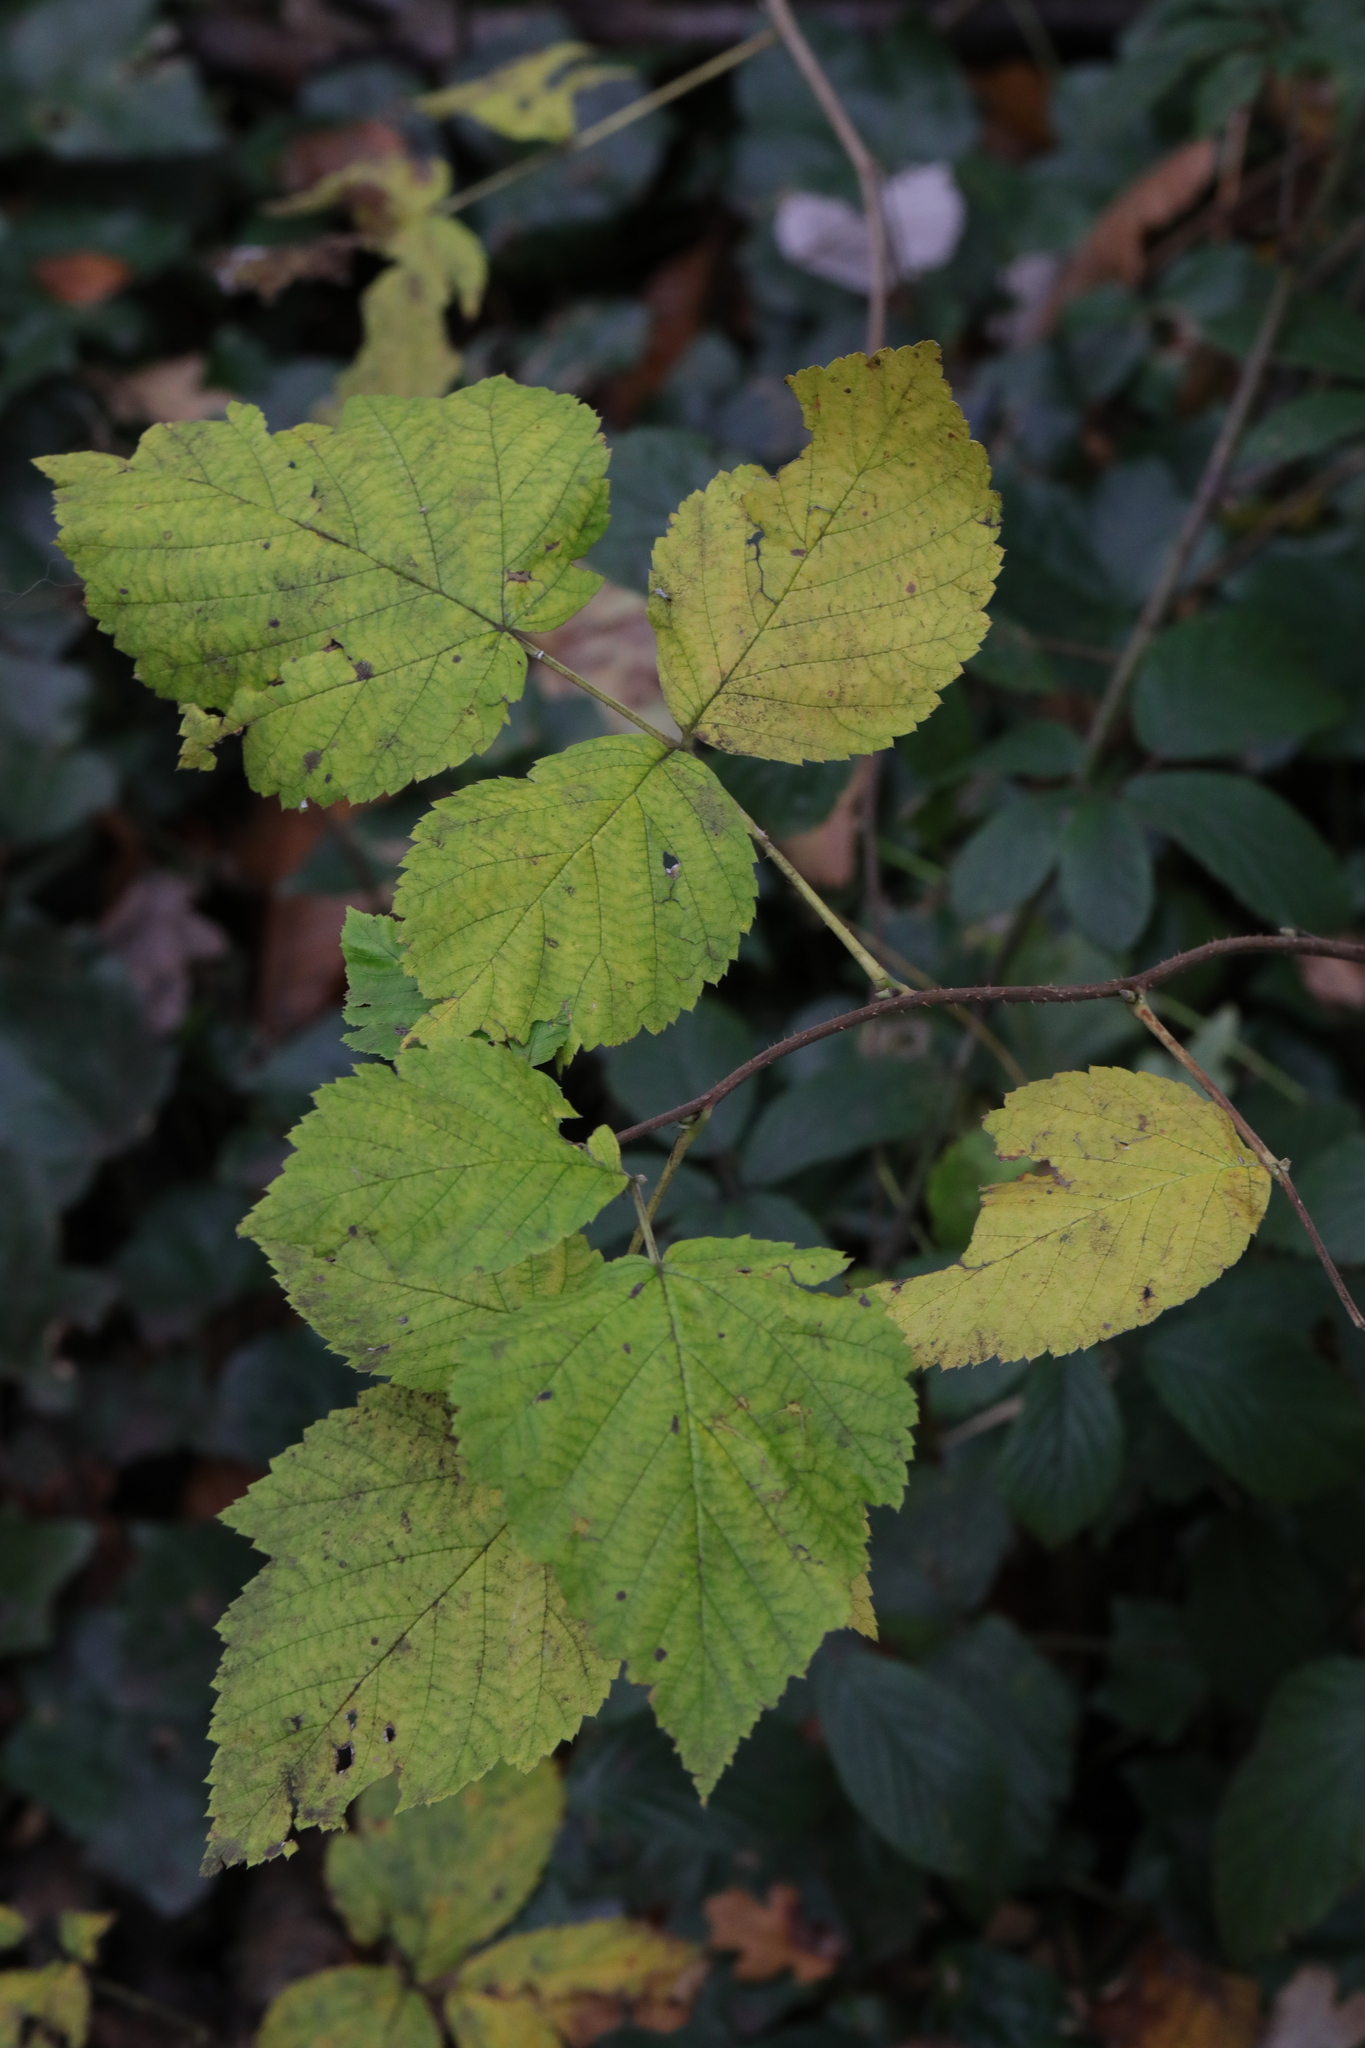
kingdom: Plantae
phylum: Tracheophyta
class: Magnoliopsida
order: Rosales
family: Rosaceae
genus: Rubus
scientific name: Rubus idaeus
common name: Raspberry
